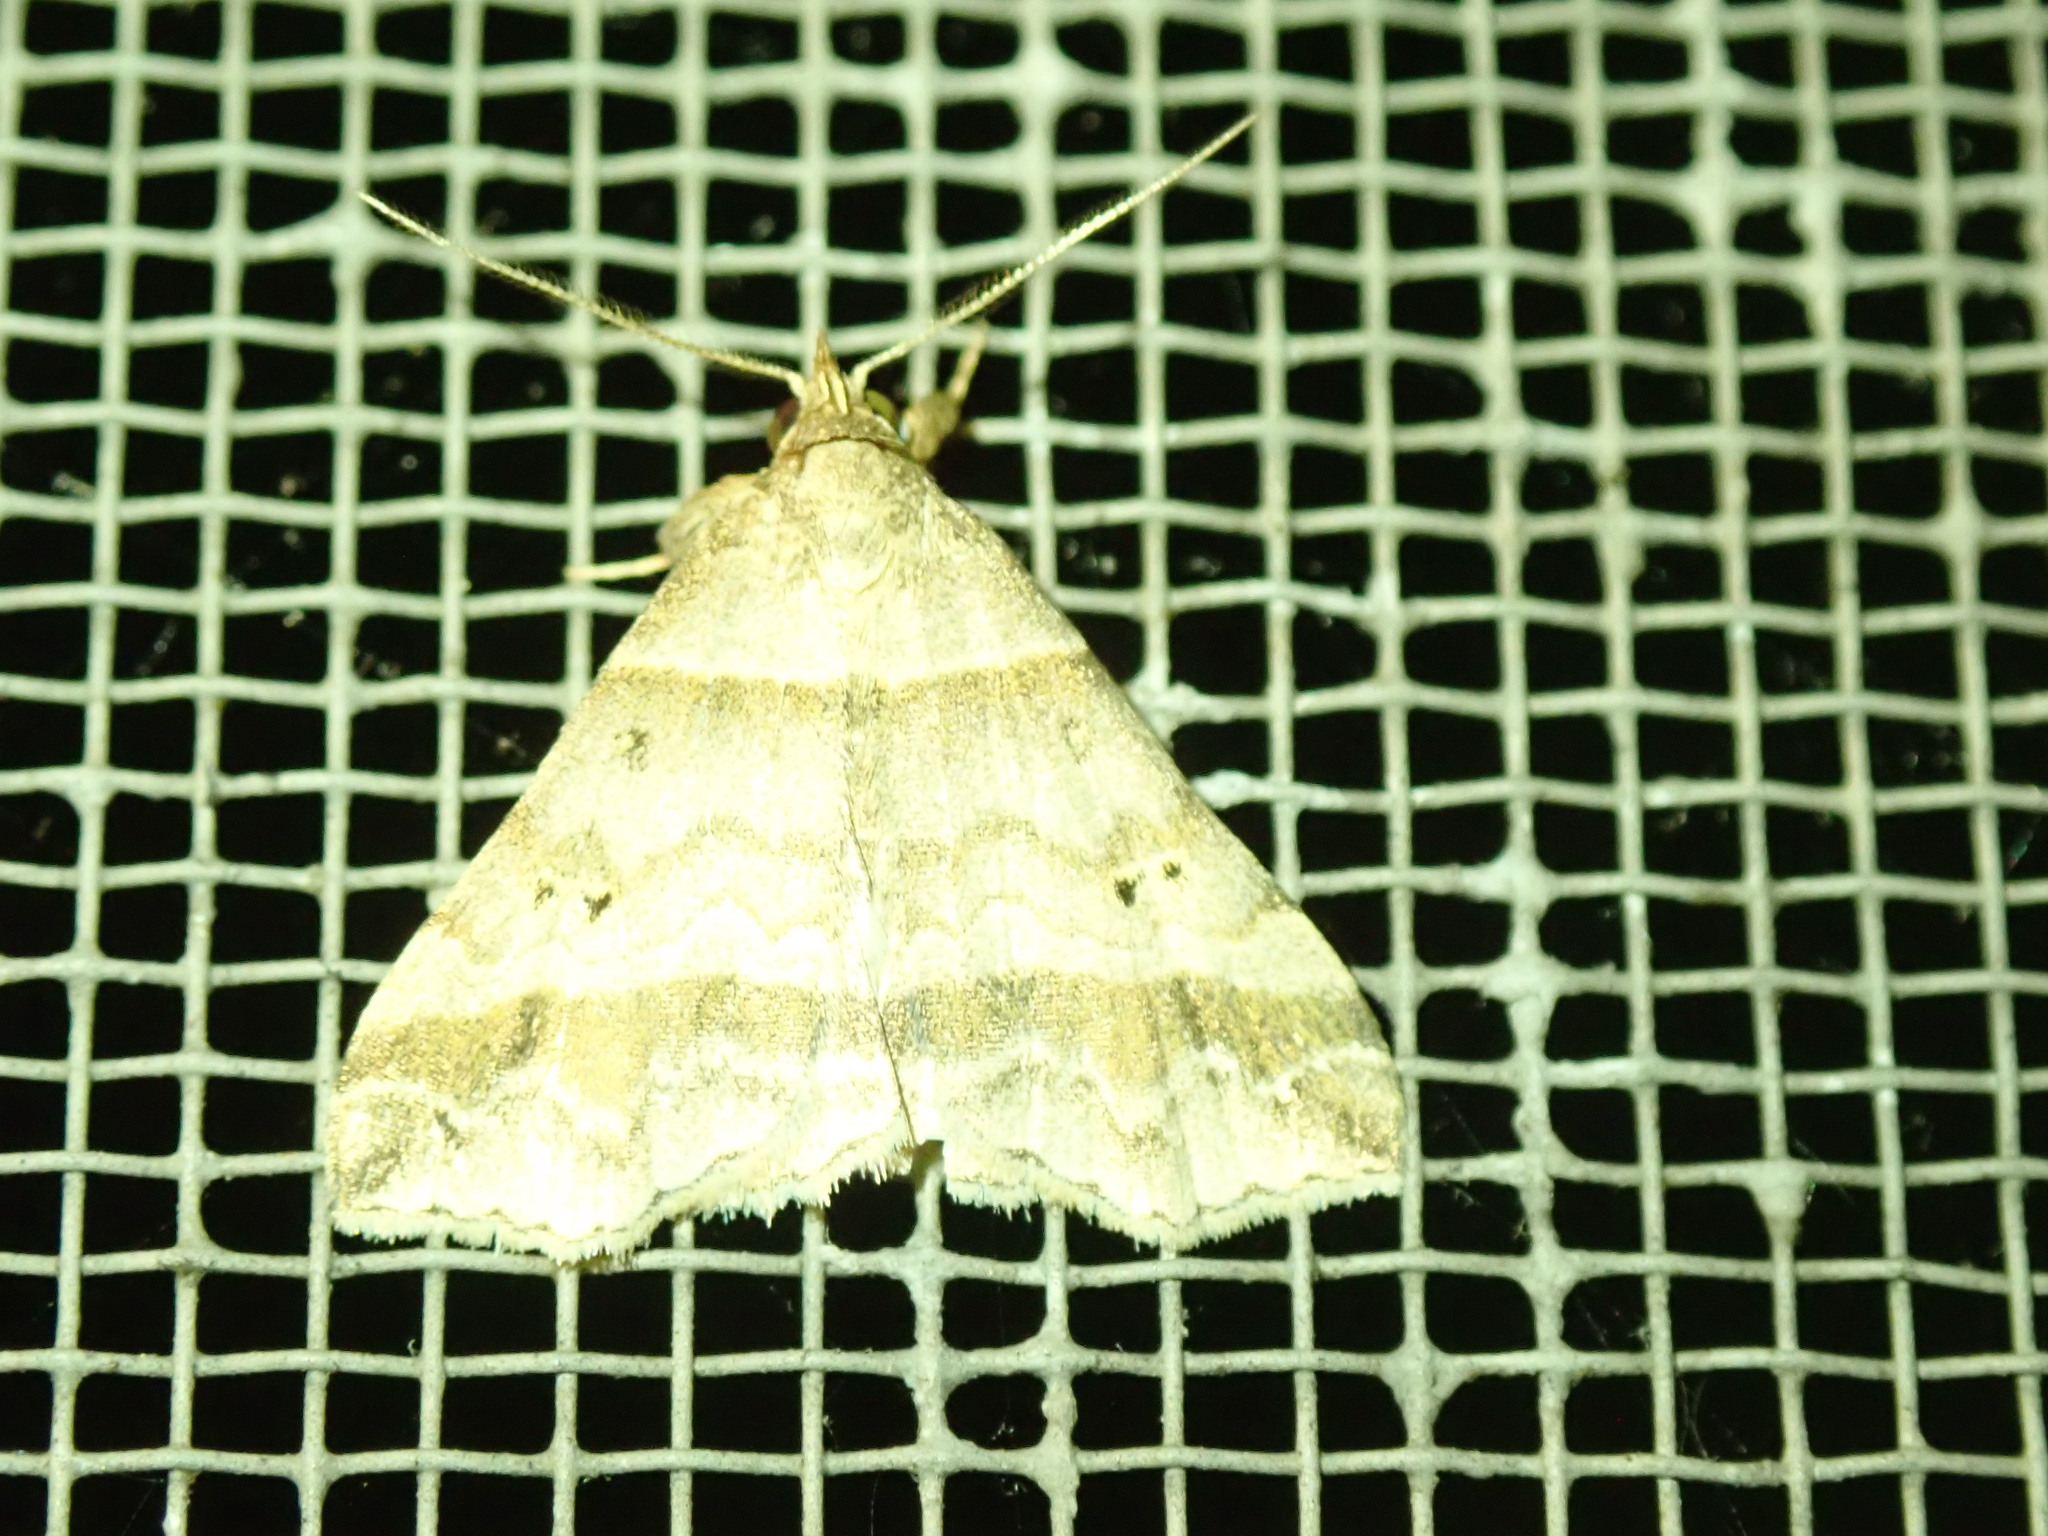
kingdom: Animalia
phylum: Arthropoda
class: Insecta
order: Lepidoptera
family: Erebidae
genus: Phaeolita
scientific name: Phaeolita pyramusalis
